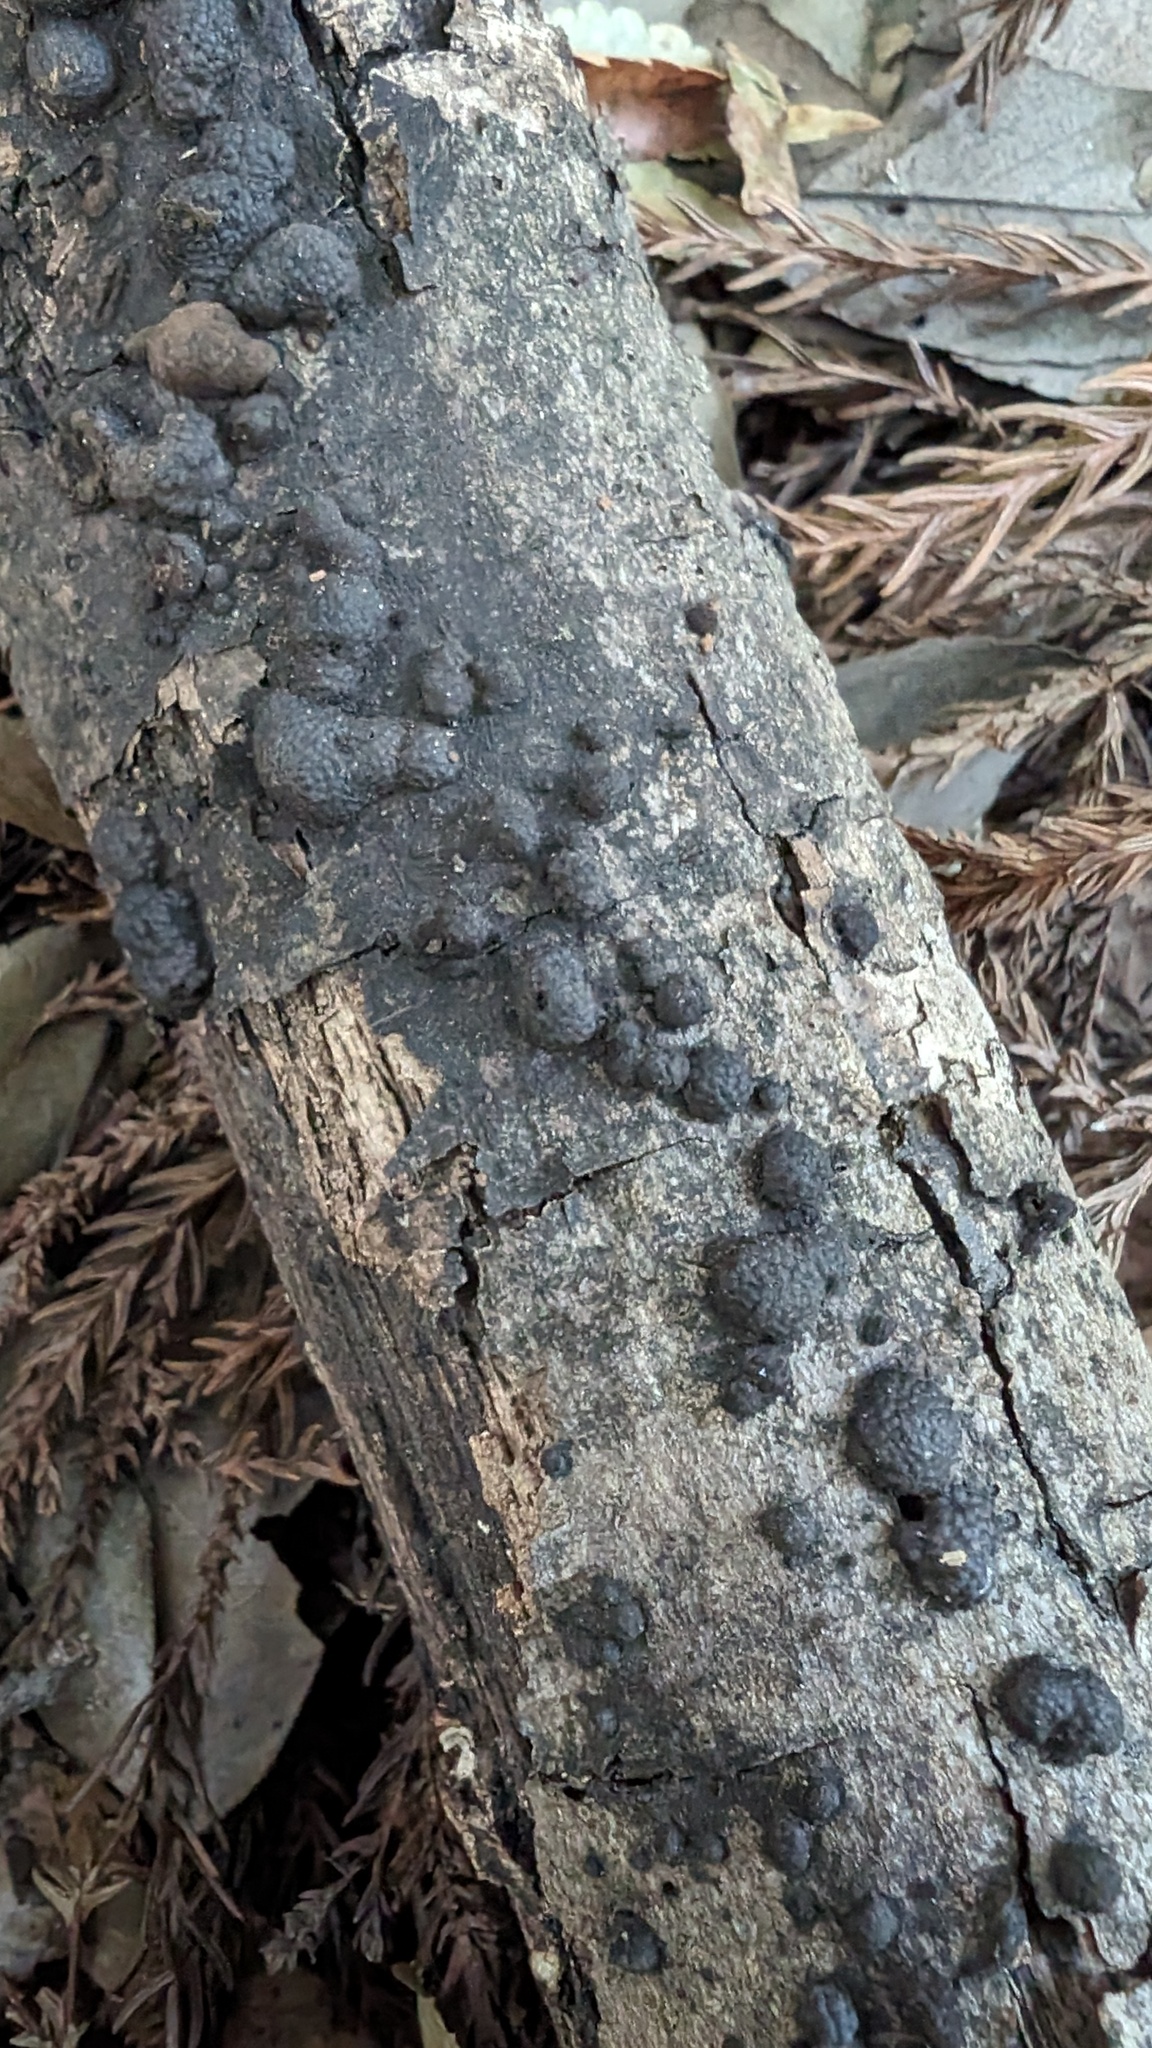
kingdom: Fungi
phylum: Ascomycota
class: Sordariomycetes
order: Xylariales
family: Hypoxylaceae
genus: Annulohypoxylon
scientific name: Annulohypoxylon truncatum
